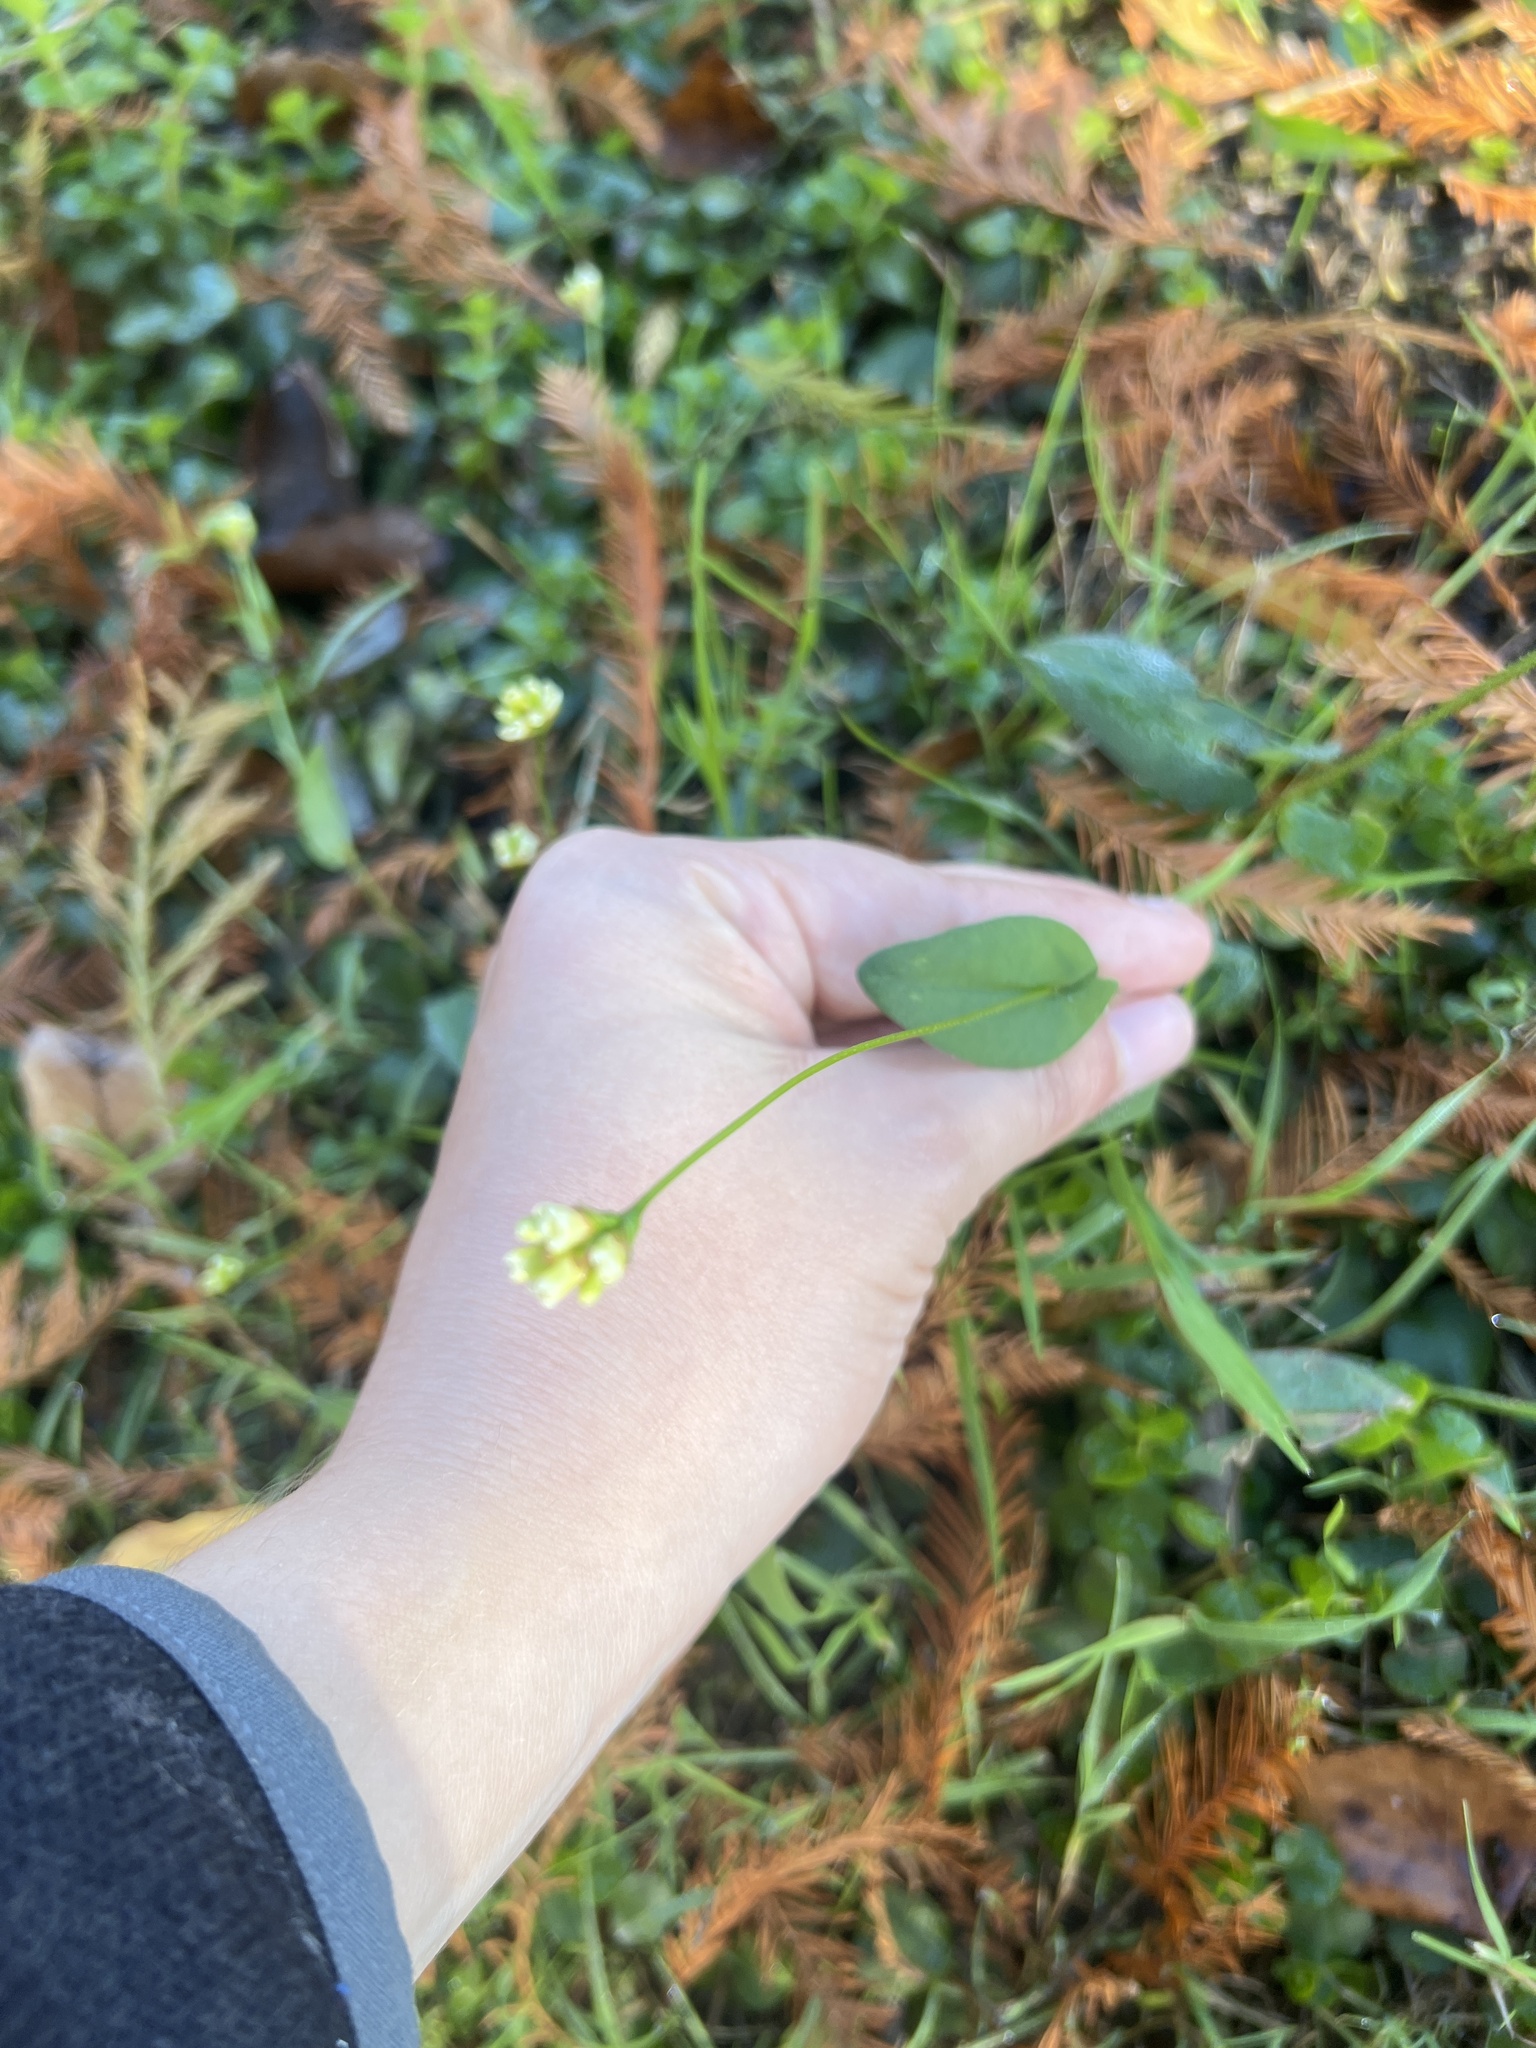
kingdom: Plantae
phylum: Tracheophyta
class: Magnoliopsida
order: Caryophyllales
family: Polygonaceae
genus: Persicaria
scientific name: Persicaria sagittata
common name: American tearthumb
